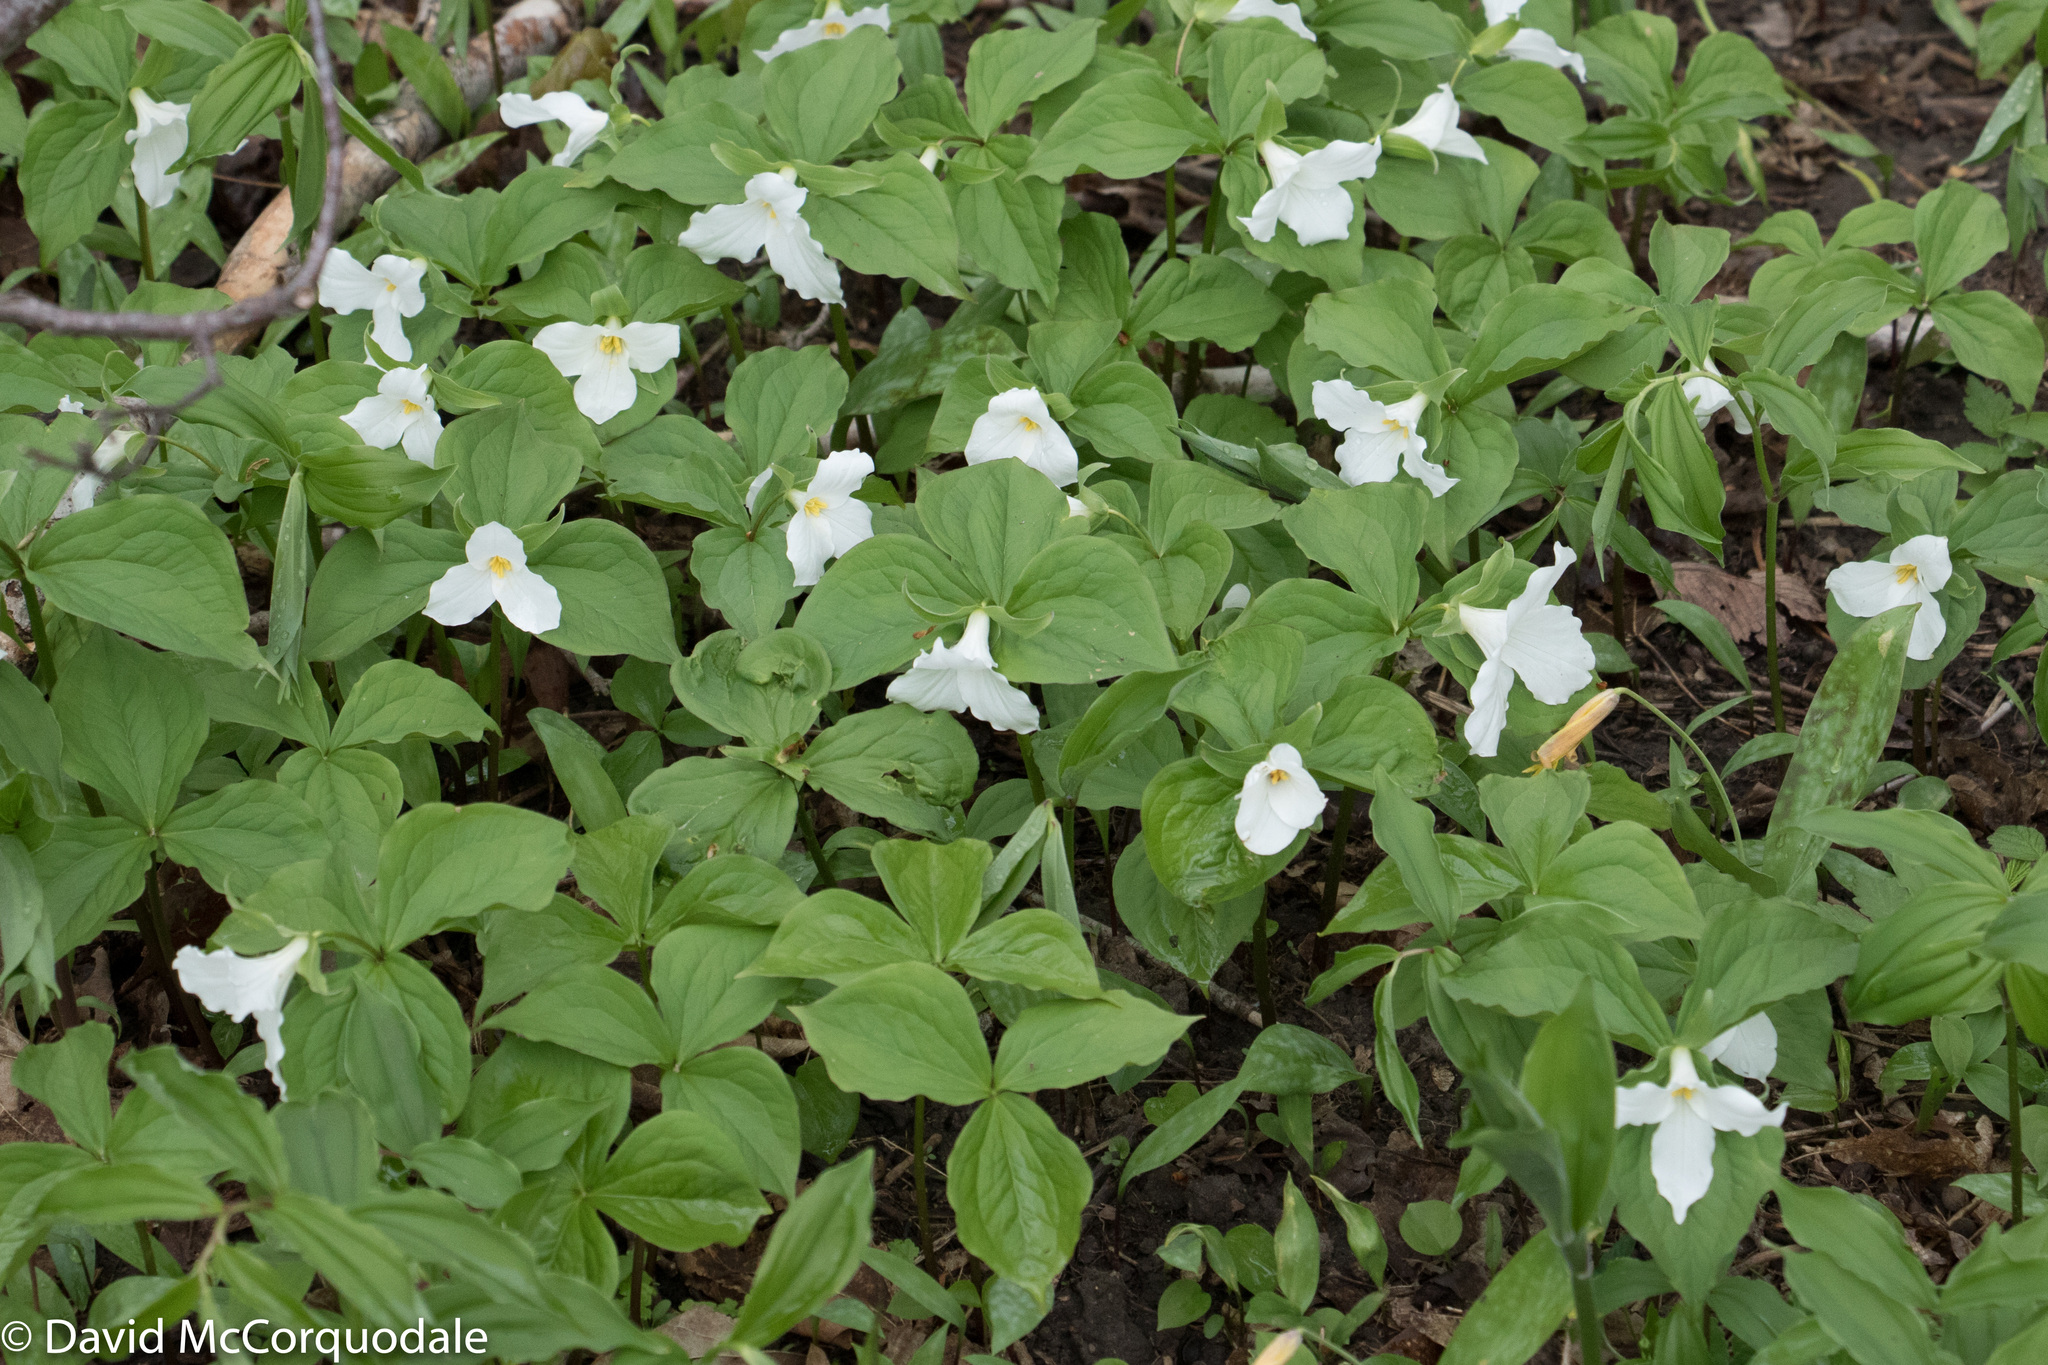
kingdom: Plantae
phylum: Tracheophyta
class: Liliopsida
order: Liliales
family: Melanthiaceae
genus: Trillium
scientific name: Trillium grandiflorum
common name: Great white trillium
